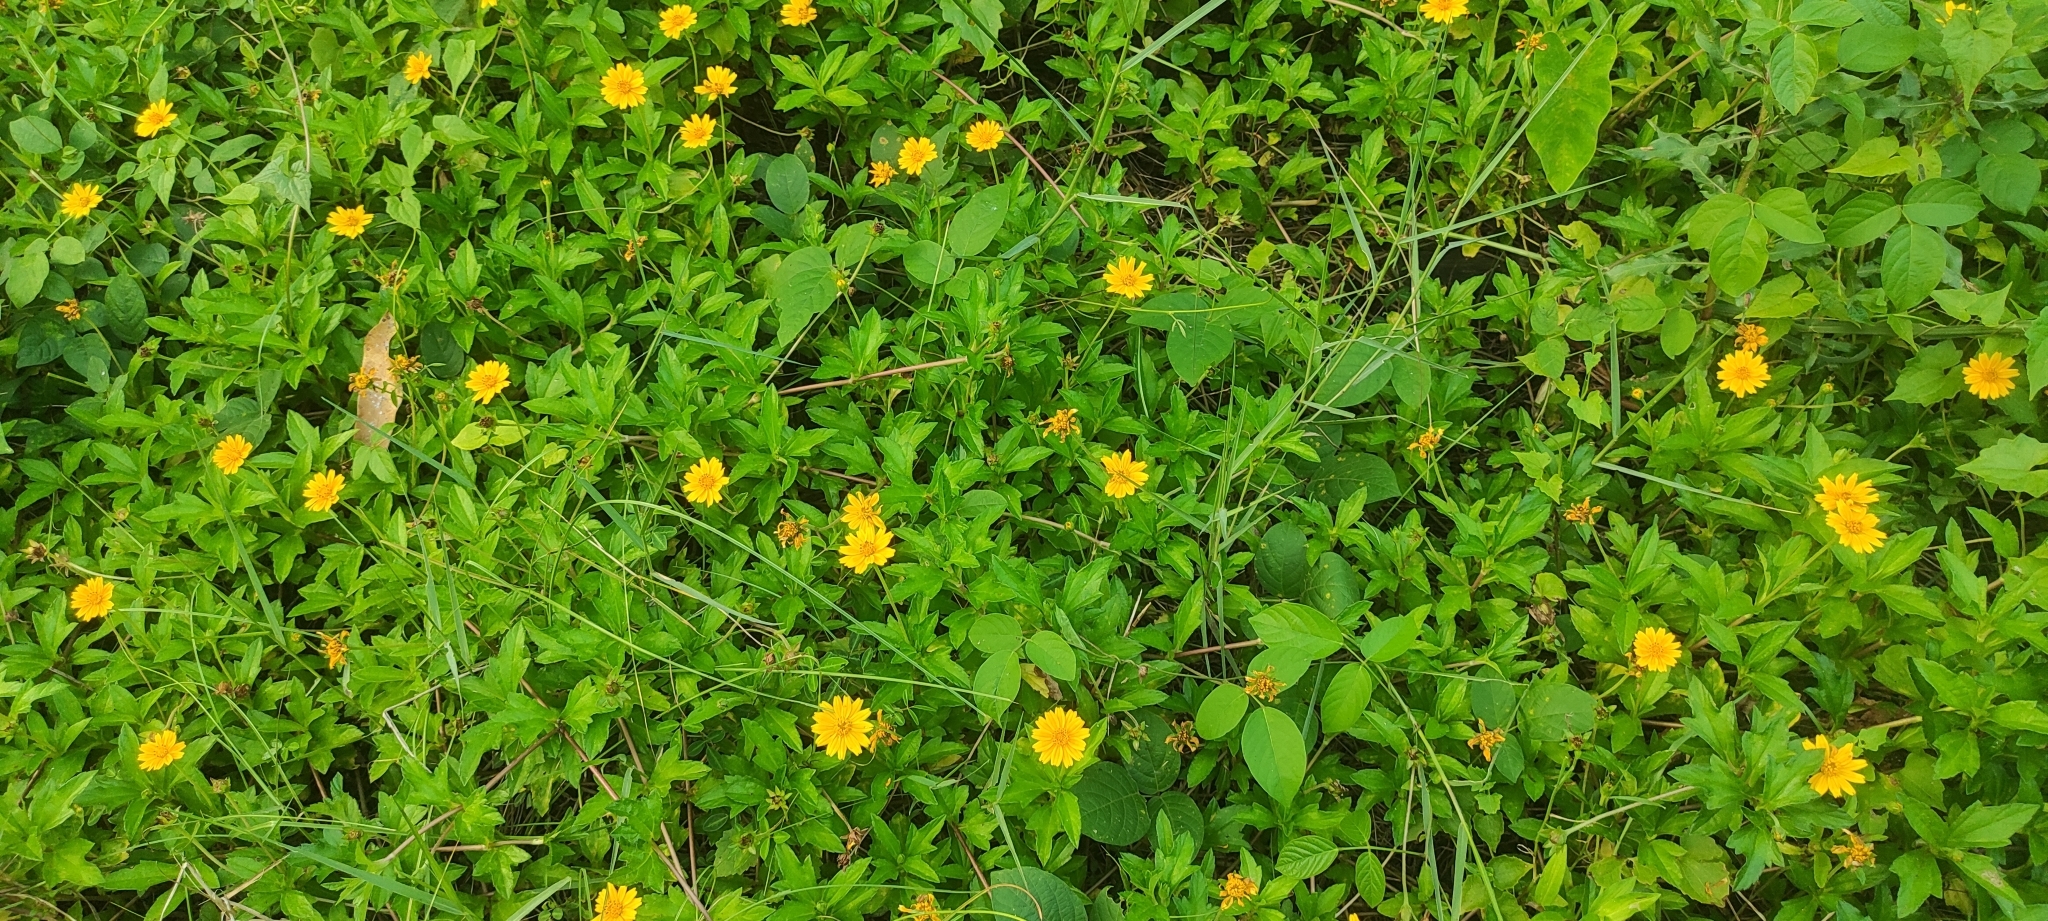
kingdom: Plantae
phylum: Tracheophyta
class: Magnoliopsida
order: Asterales
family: Asteraceae
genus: Sphagneticola
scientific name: Sphagneticola trilobata
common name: Bay biscayne creeping-oxeye
